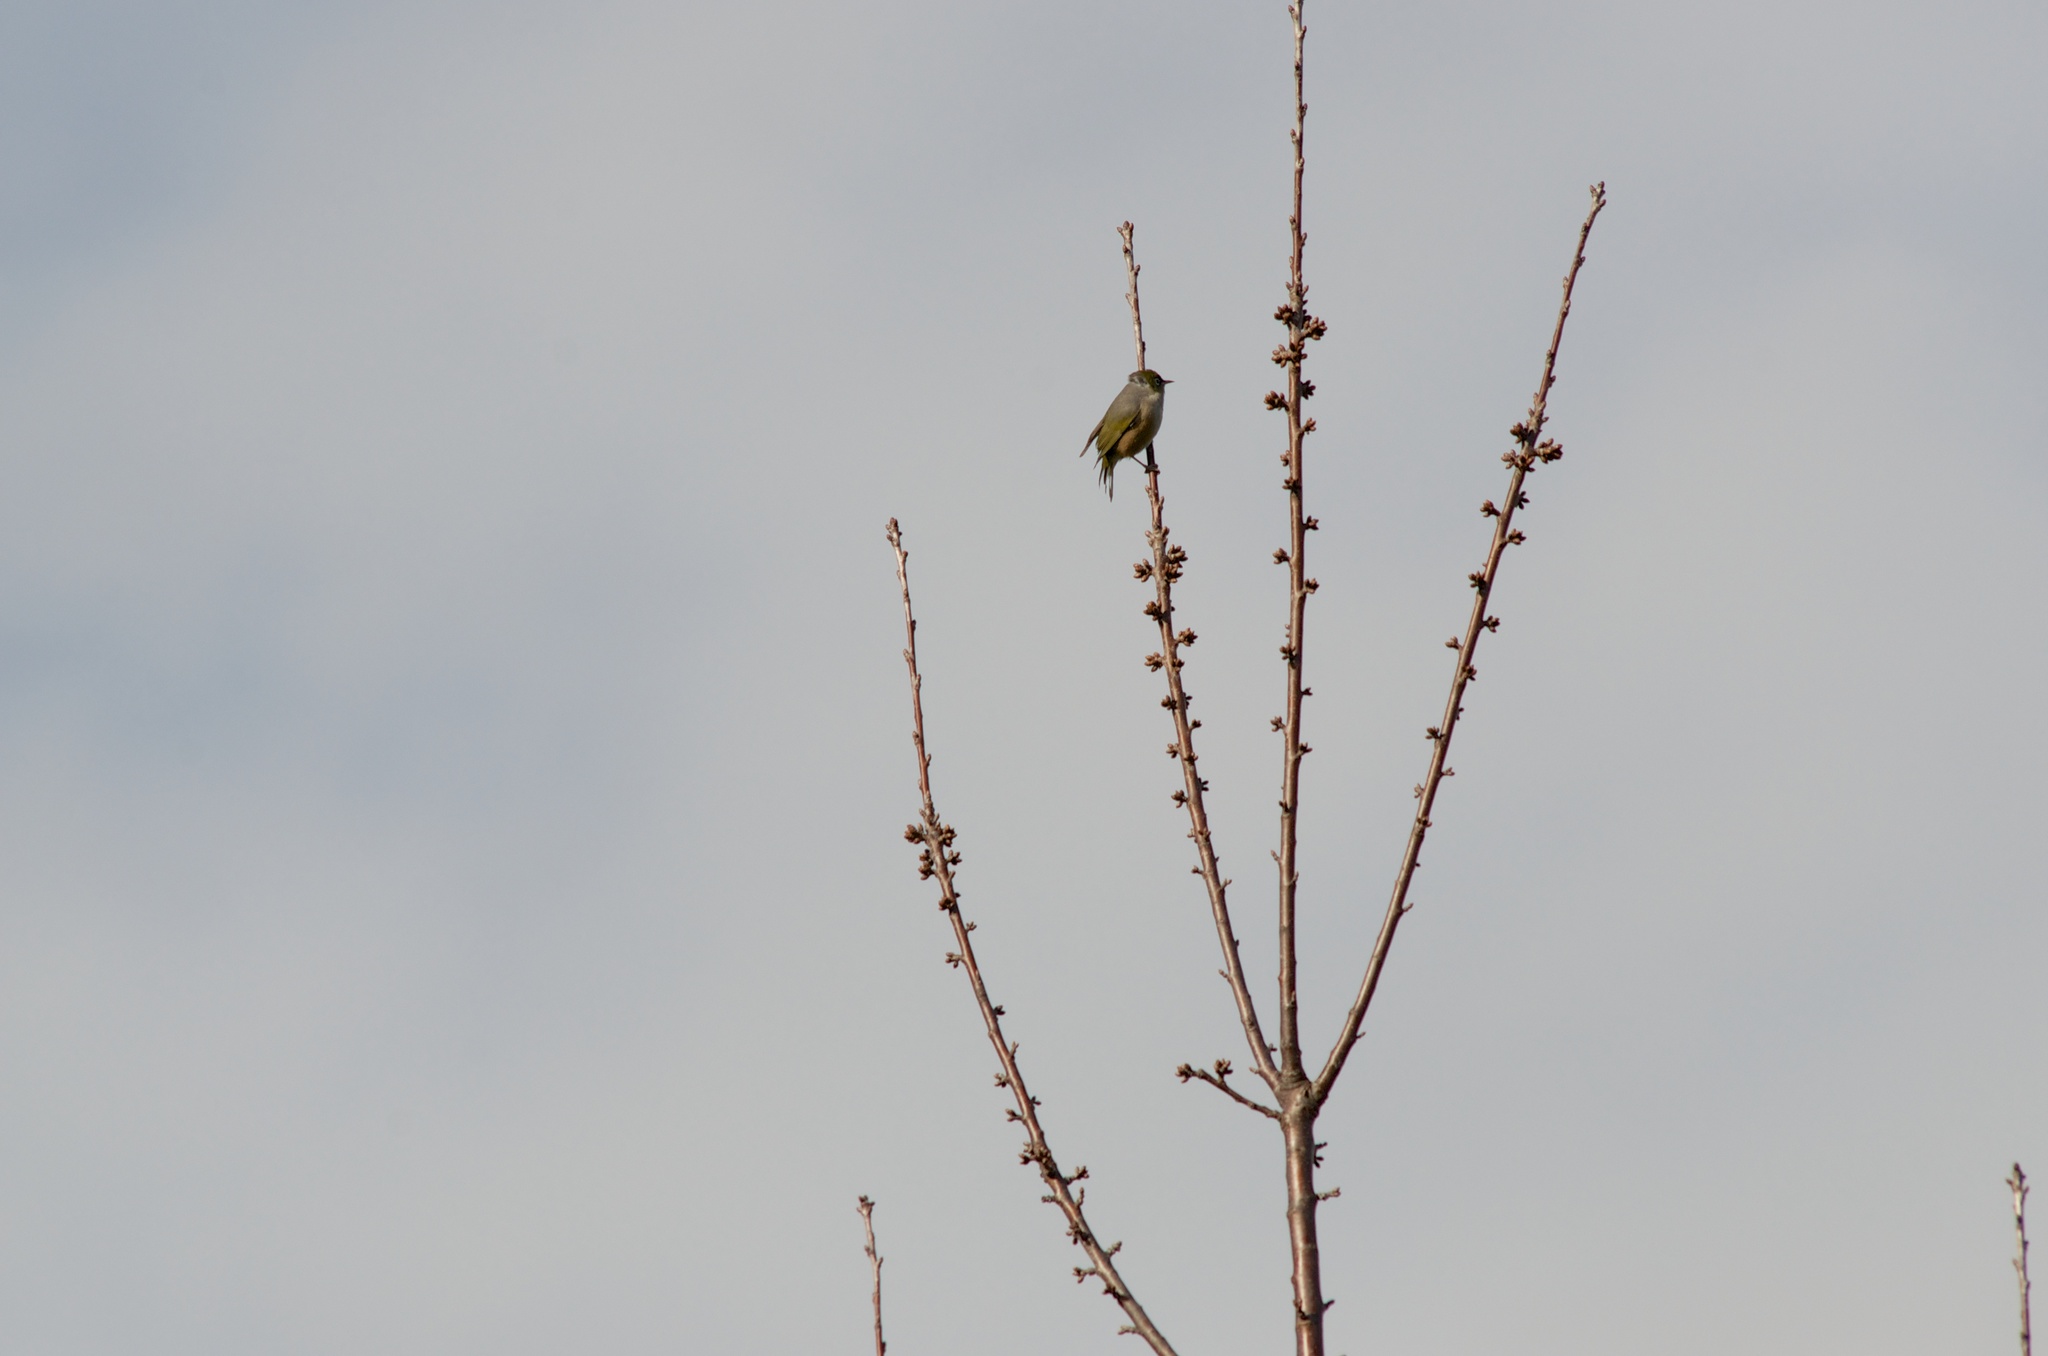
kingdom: Animalia
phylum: Chordata
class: Aves
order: Passeriformes
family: Zosteropidae
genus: Zosterops
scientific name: Zosterops lateralis
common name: Silvereye
